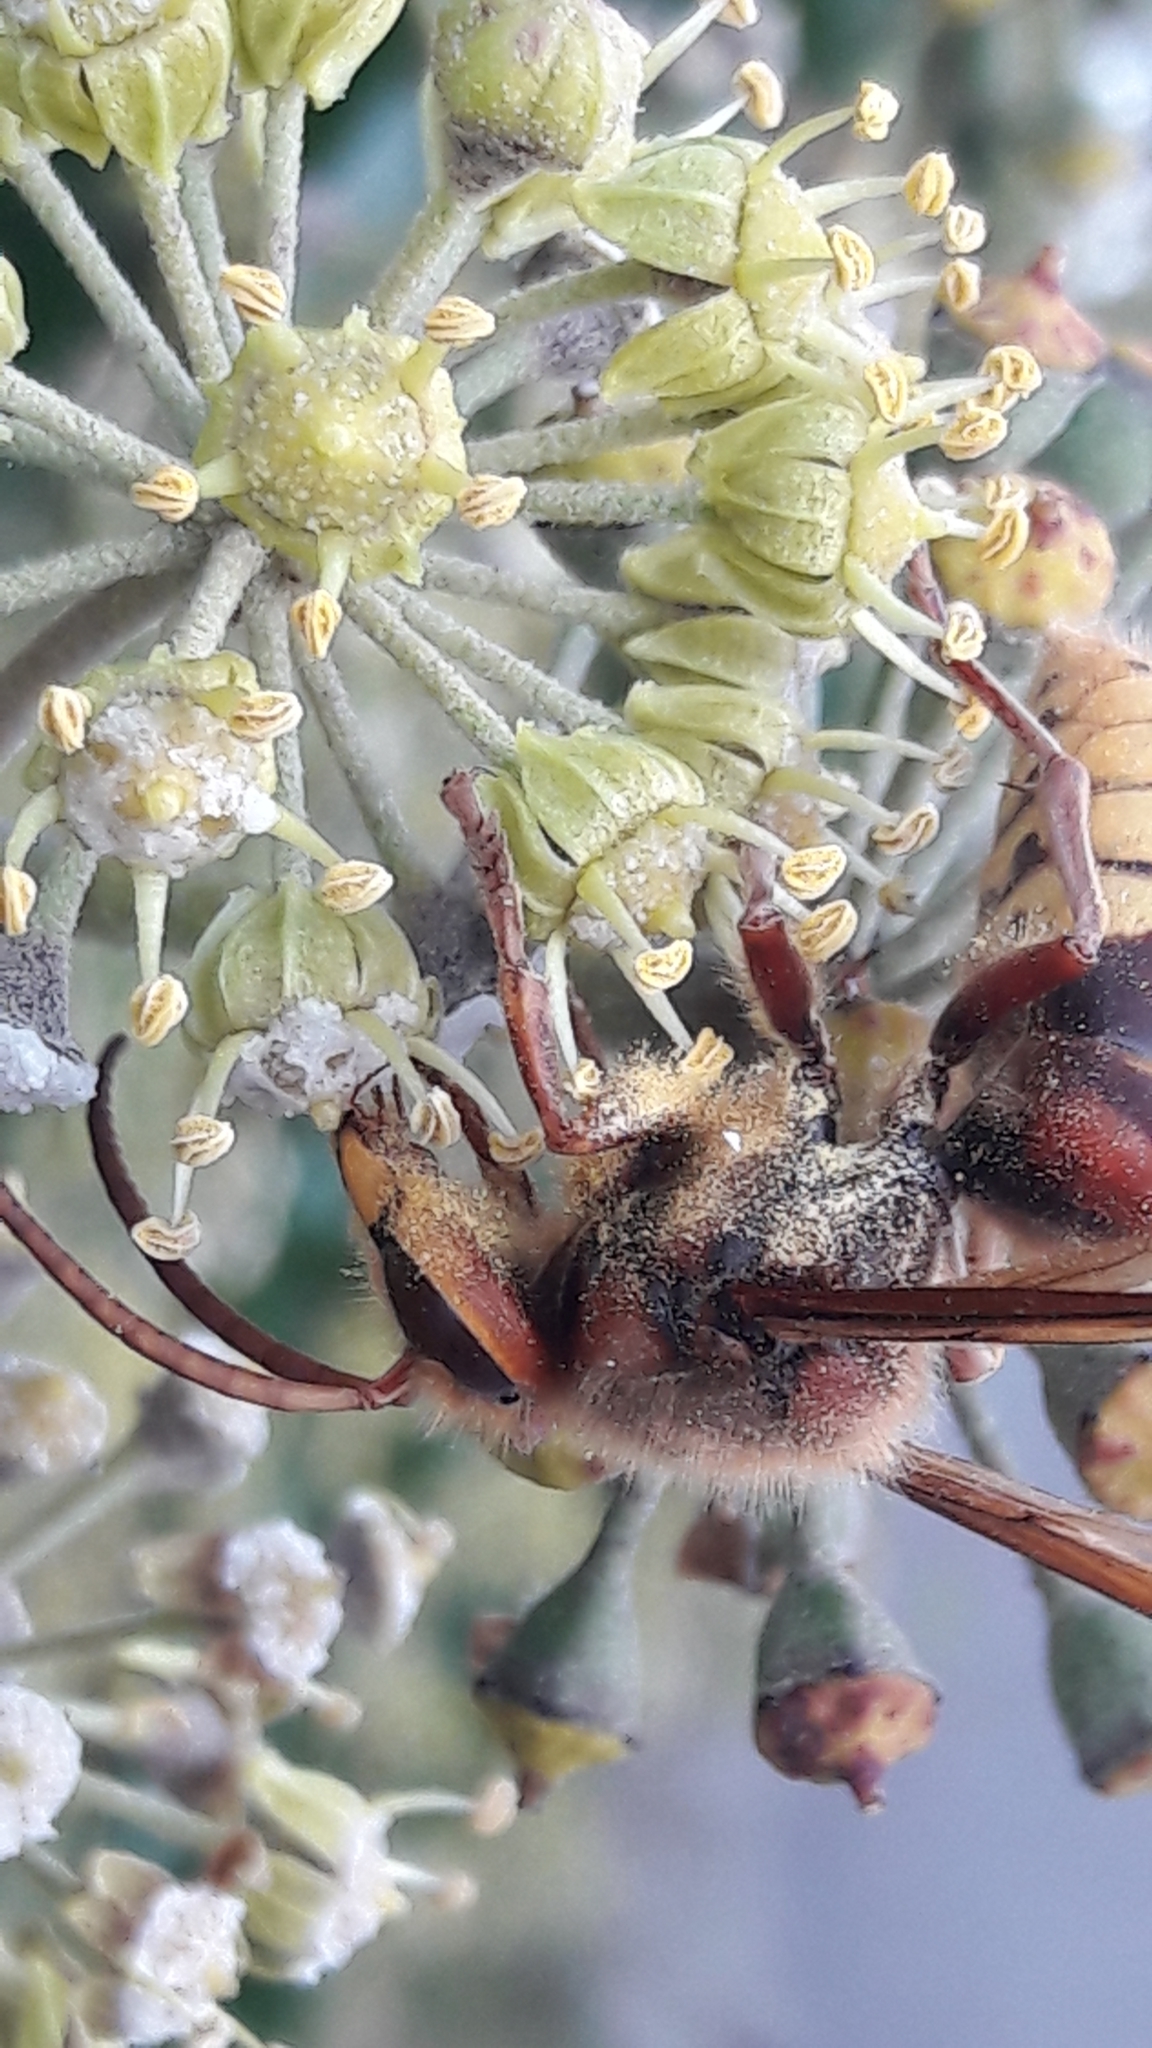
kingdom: Animalia
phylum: Arthropoda
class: Insecta
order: Hymenoptera
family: Vespidae
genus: Vespa
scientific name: Vespa crabro
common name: Hornet
